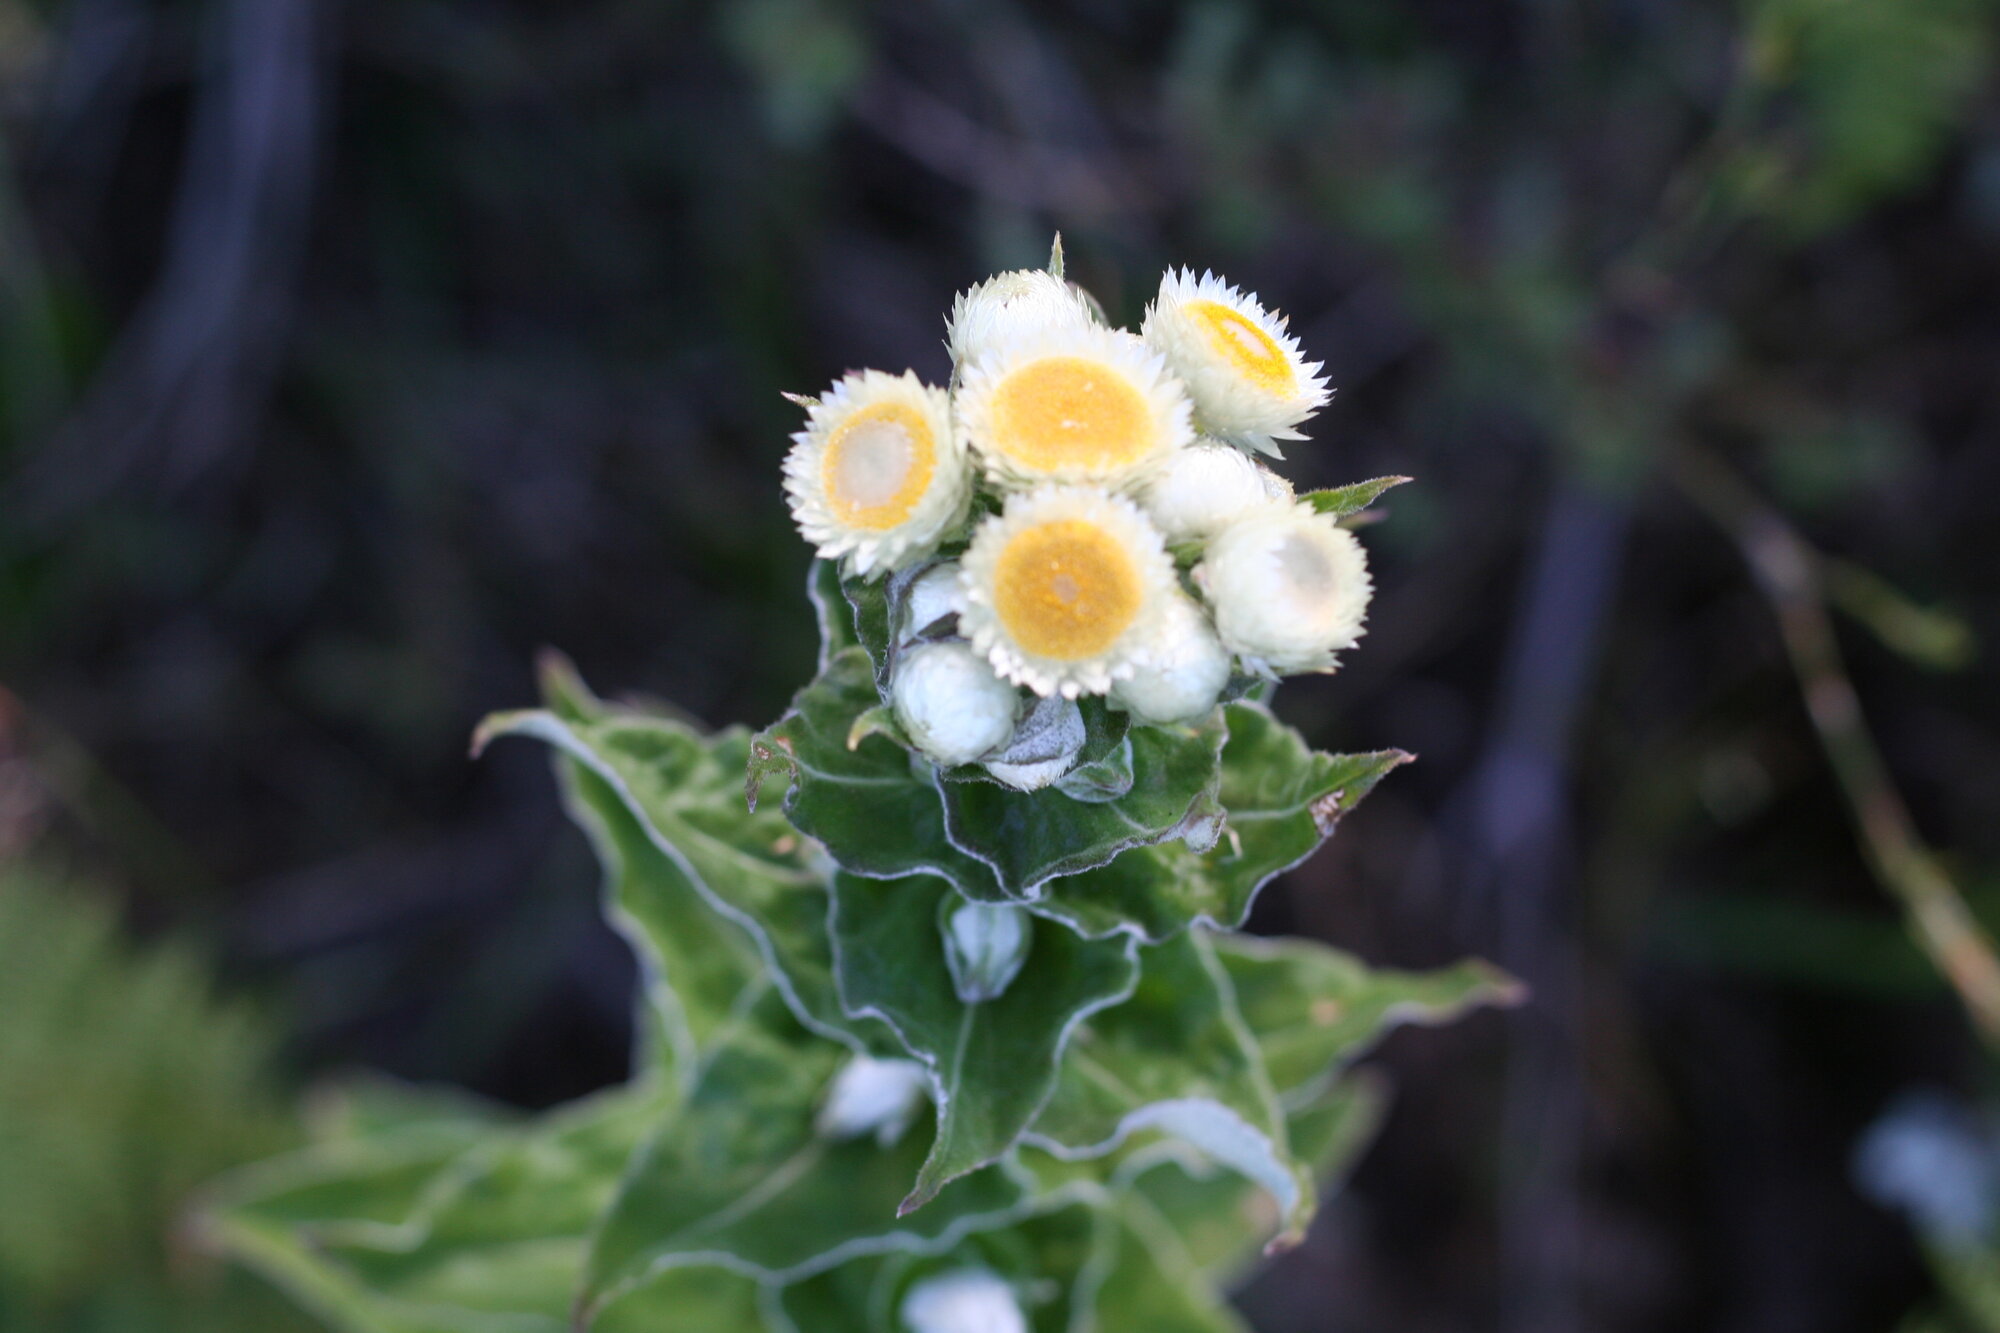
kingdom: Plantae
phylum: Tracheophyta
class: Magnoliopsida
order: Asterales
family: Asteraceae
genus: Helichrysum
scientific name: Helichrysum foetidum
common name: Stinking everlasting
